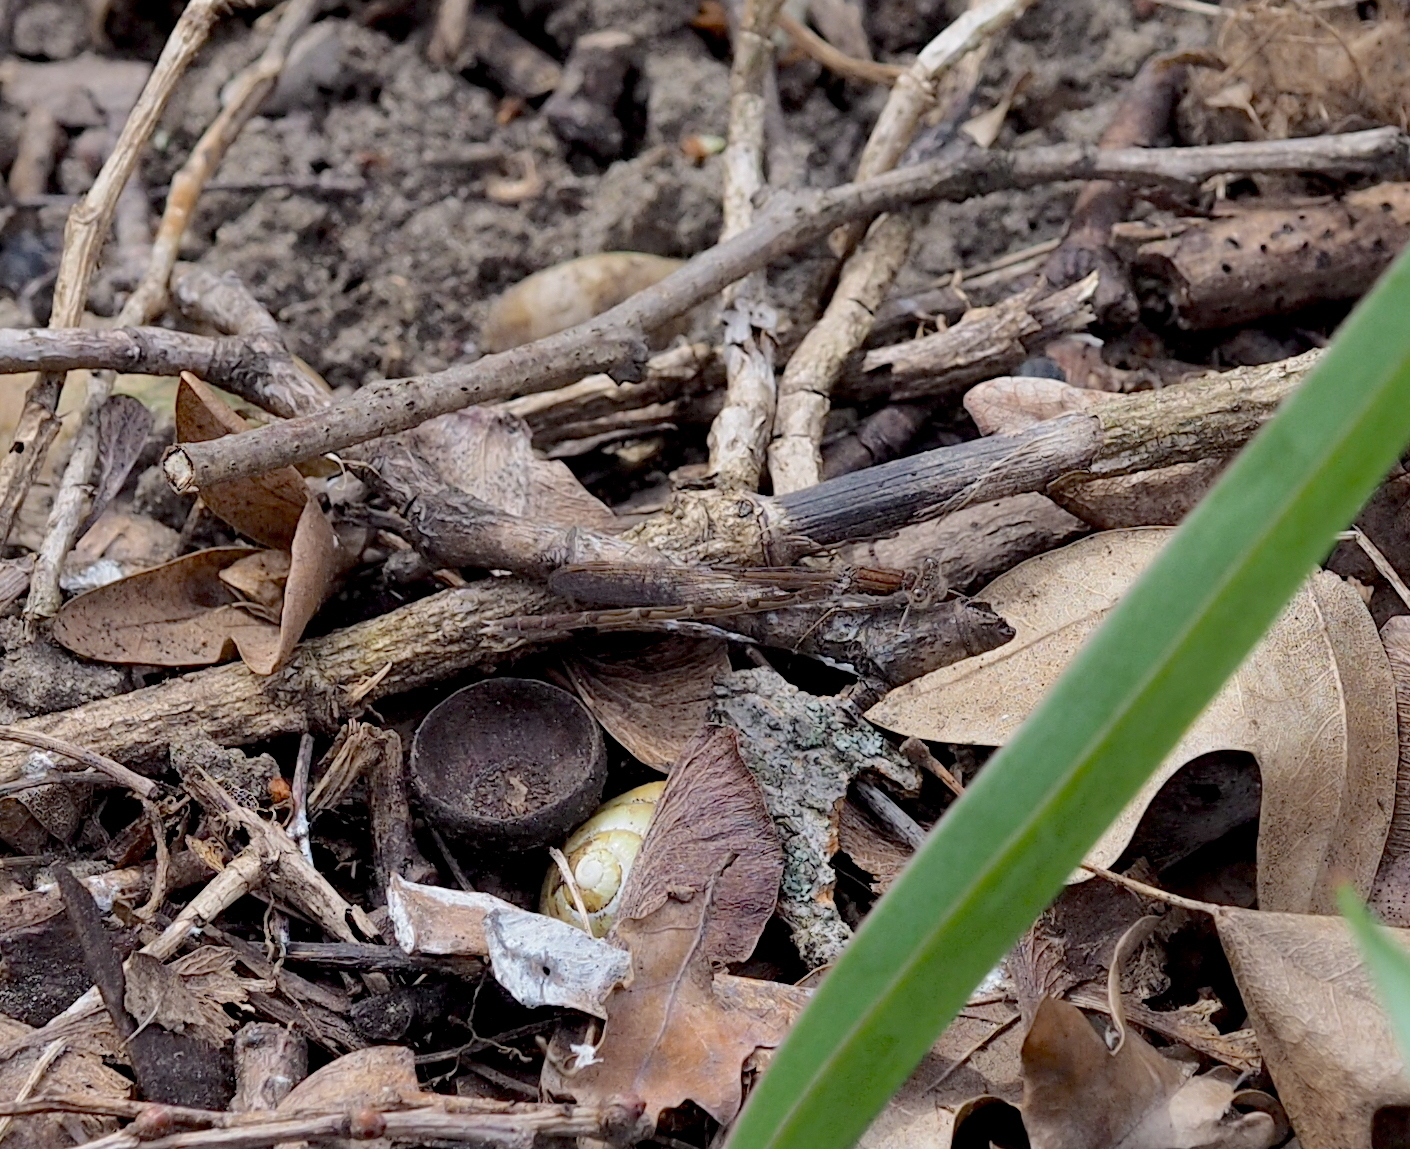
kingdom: Animalia
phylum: Arthropoda
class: Insecta
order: Odonata
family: Lestidae
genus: Sympecma
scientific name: Sympecma fusca
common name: Common winter damsel
